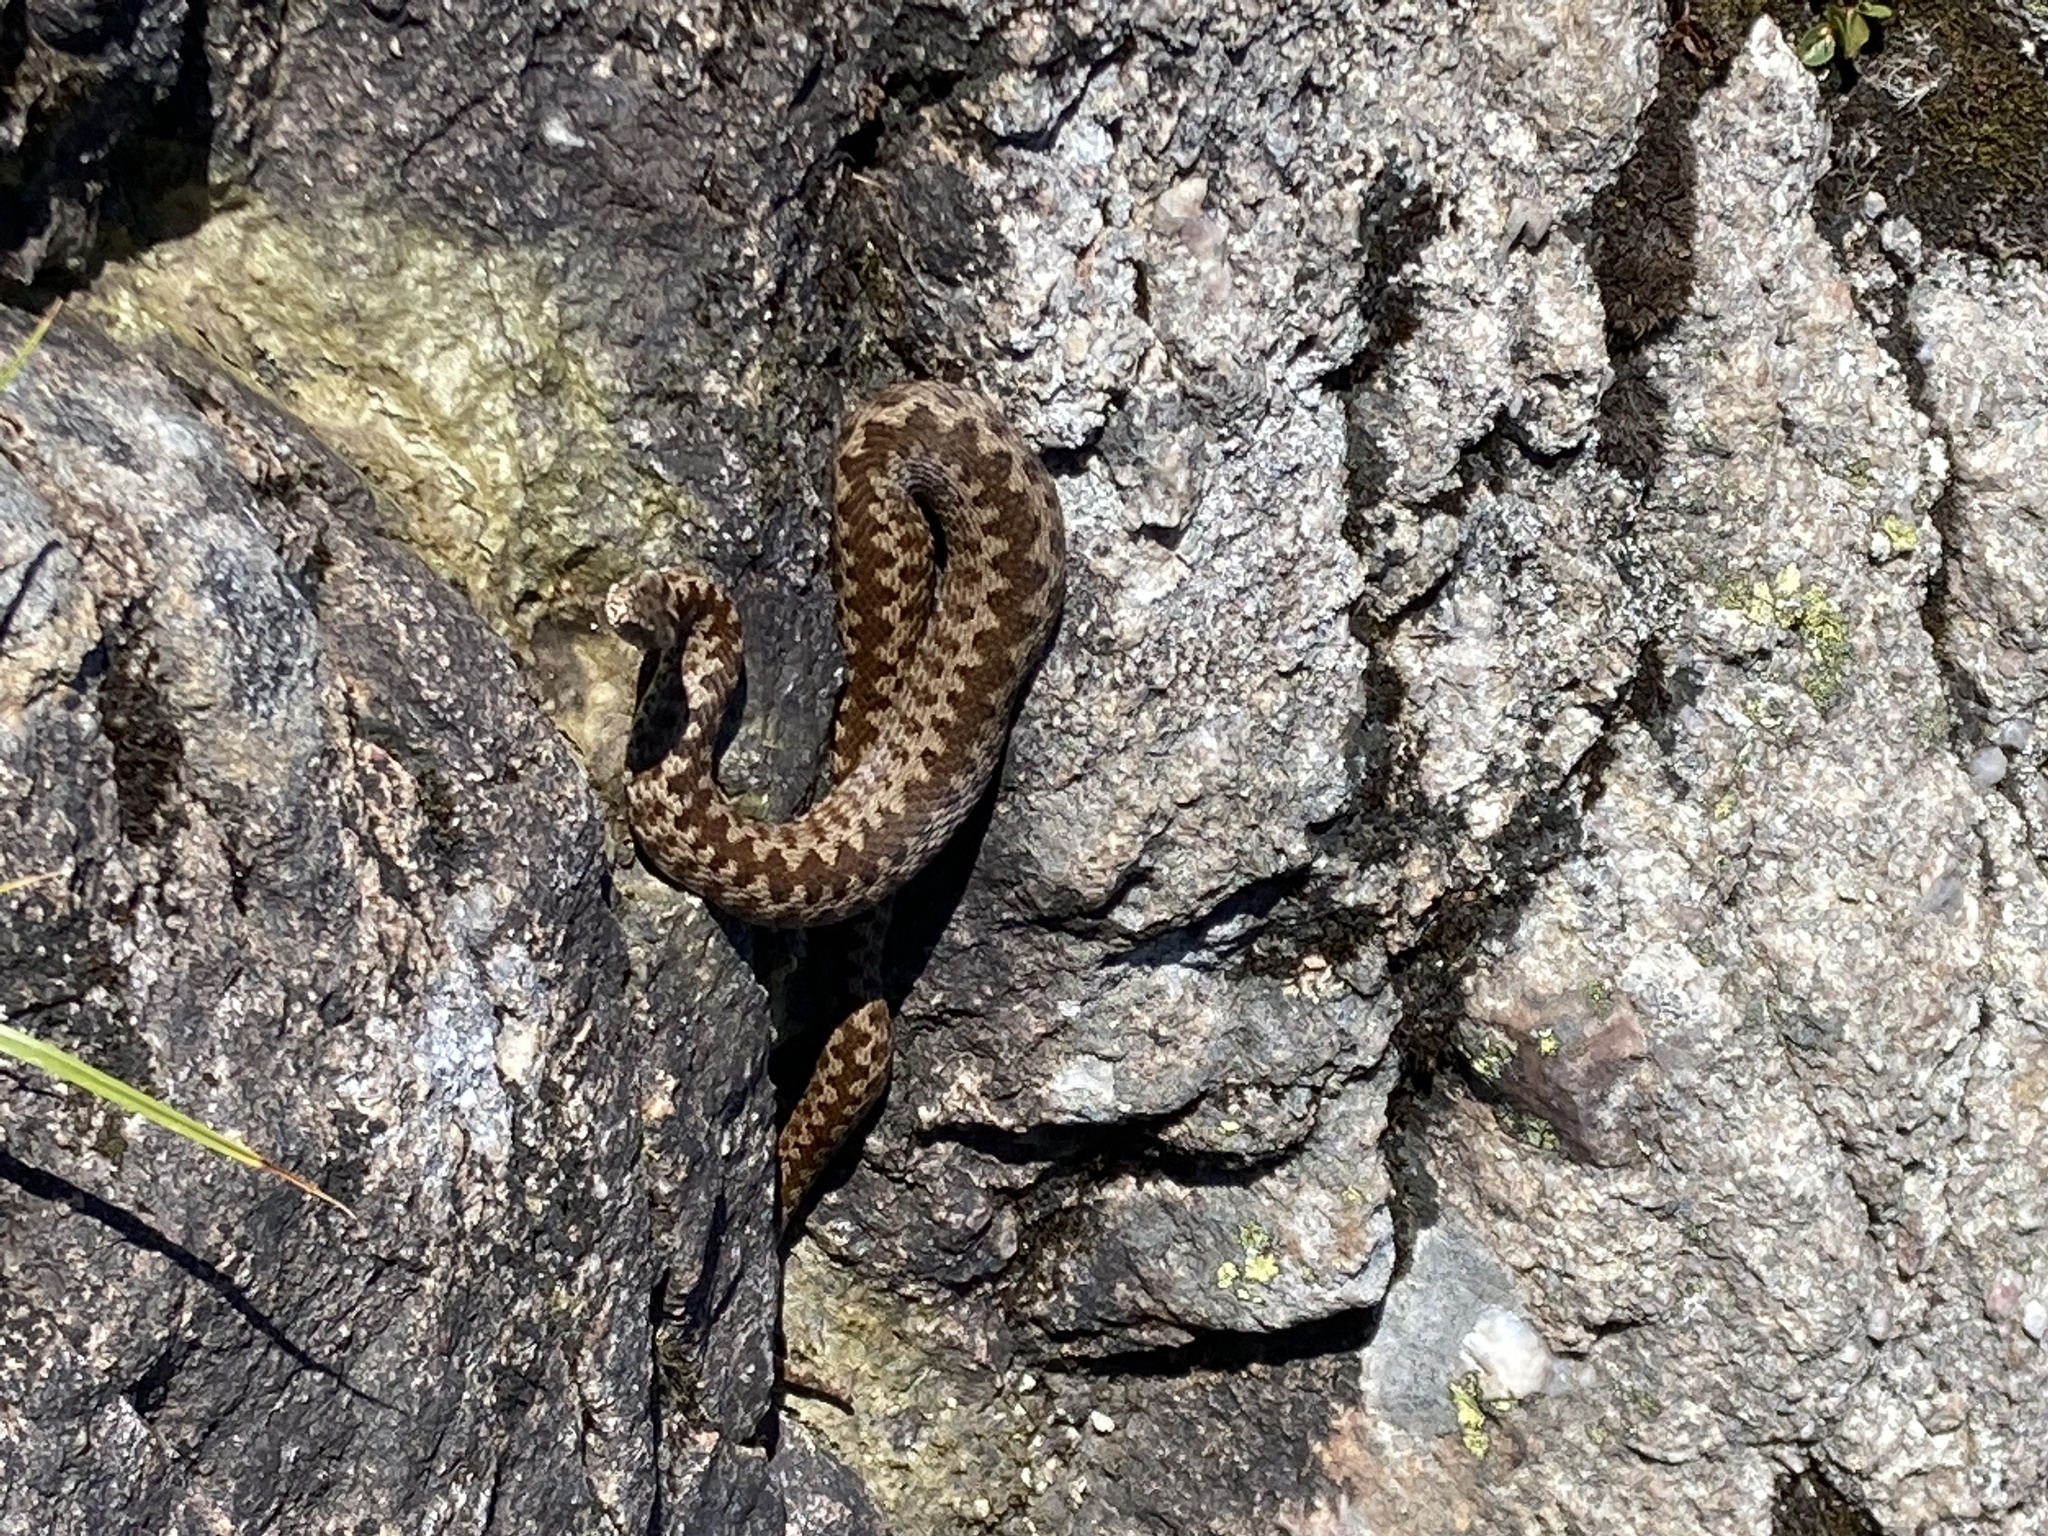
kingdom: Animalia
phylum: Chordata
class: Squamata
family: Viperidae
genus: Vipera
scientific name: Vipera berus
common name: Adder
